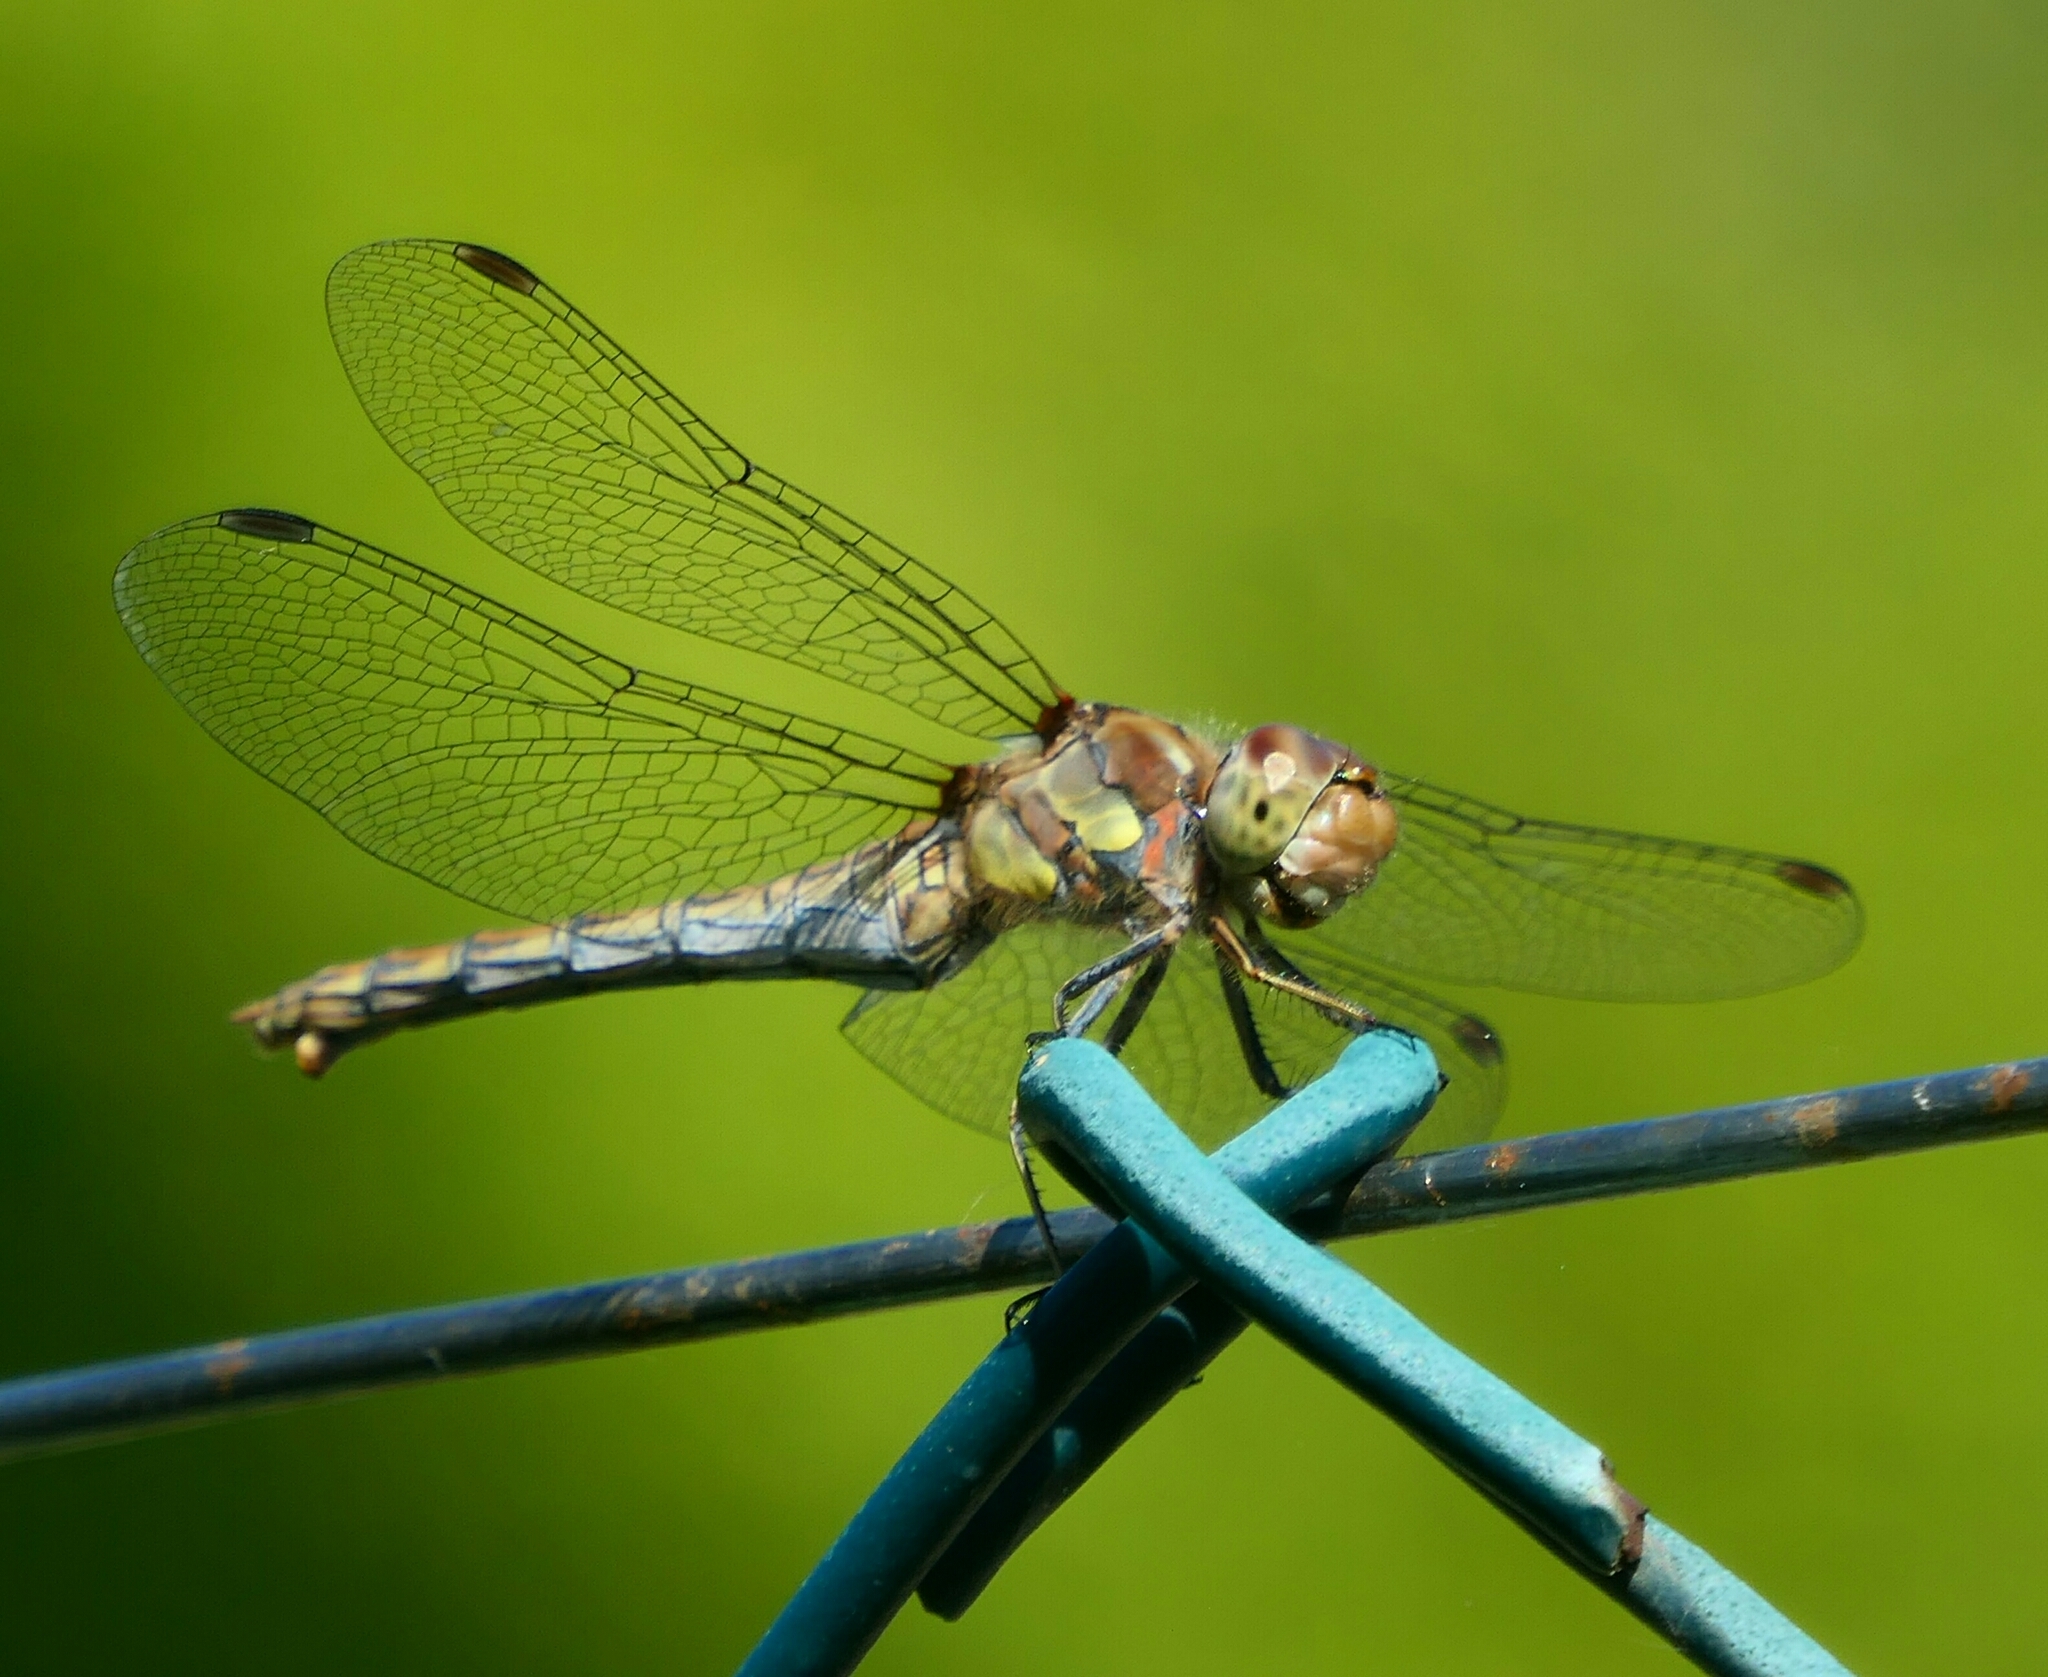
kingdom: Animalia
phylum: Arthropoda
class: Insecta
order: Odonata
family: Libellulidae
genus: Sympetrum
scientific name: Sympetrum striolatum
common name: Common darter
